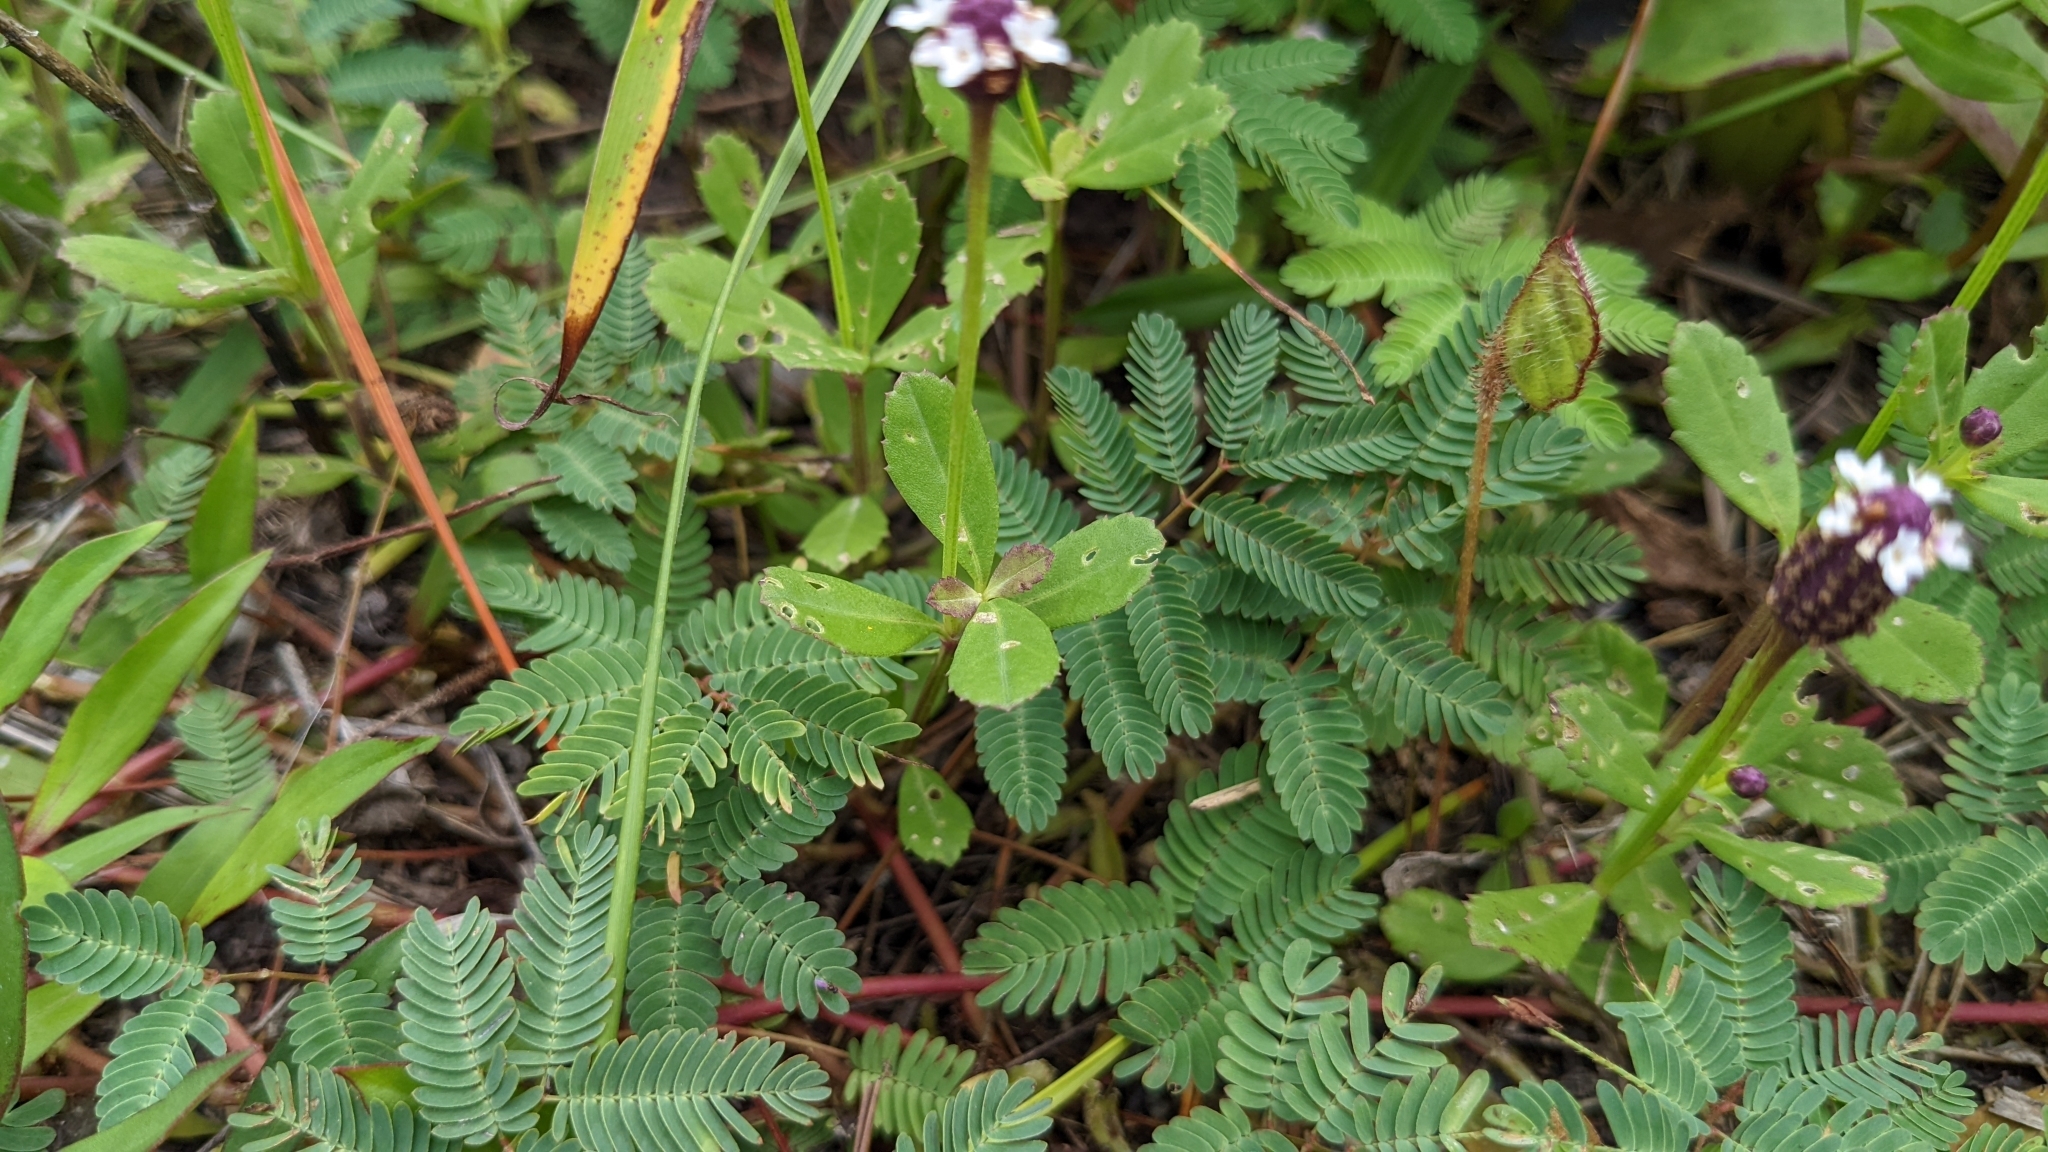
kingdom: Plantae
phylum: Tracheophyta
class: Magnoliopsida
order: Lamiales
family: Verbenaceae
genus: Phyla
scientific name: Phyla nodiflora
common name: Frogfruit
